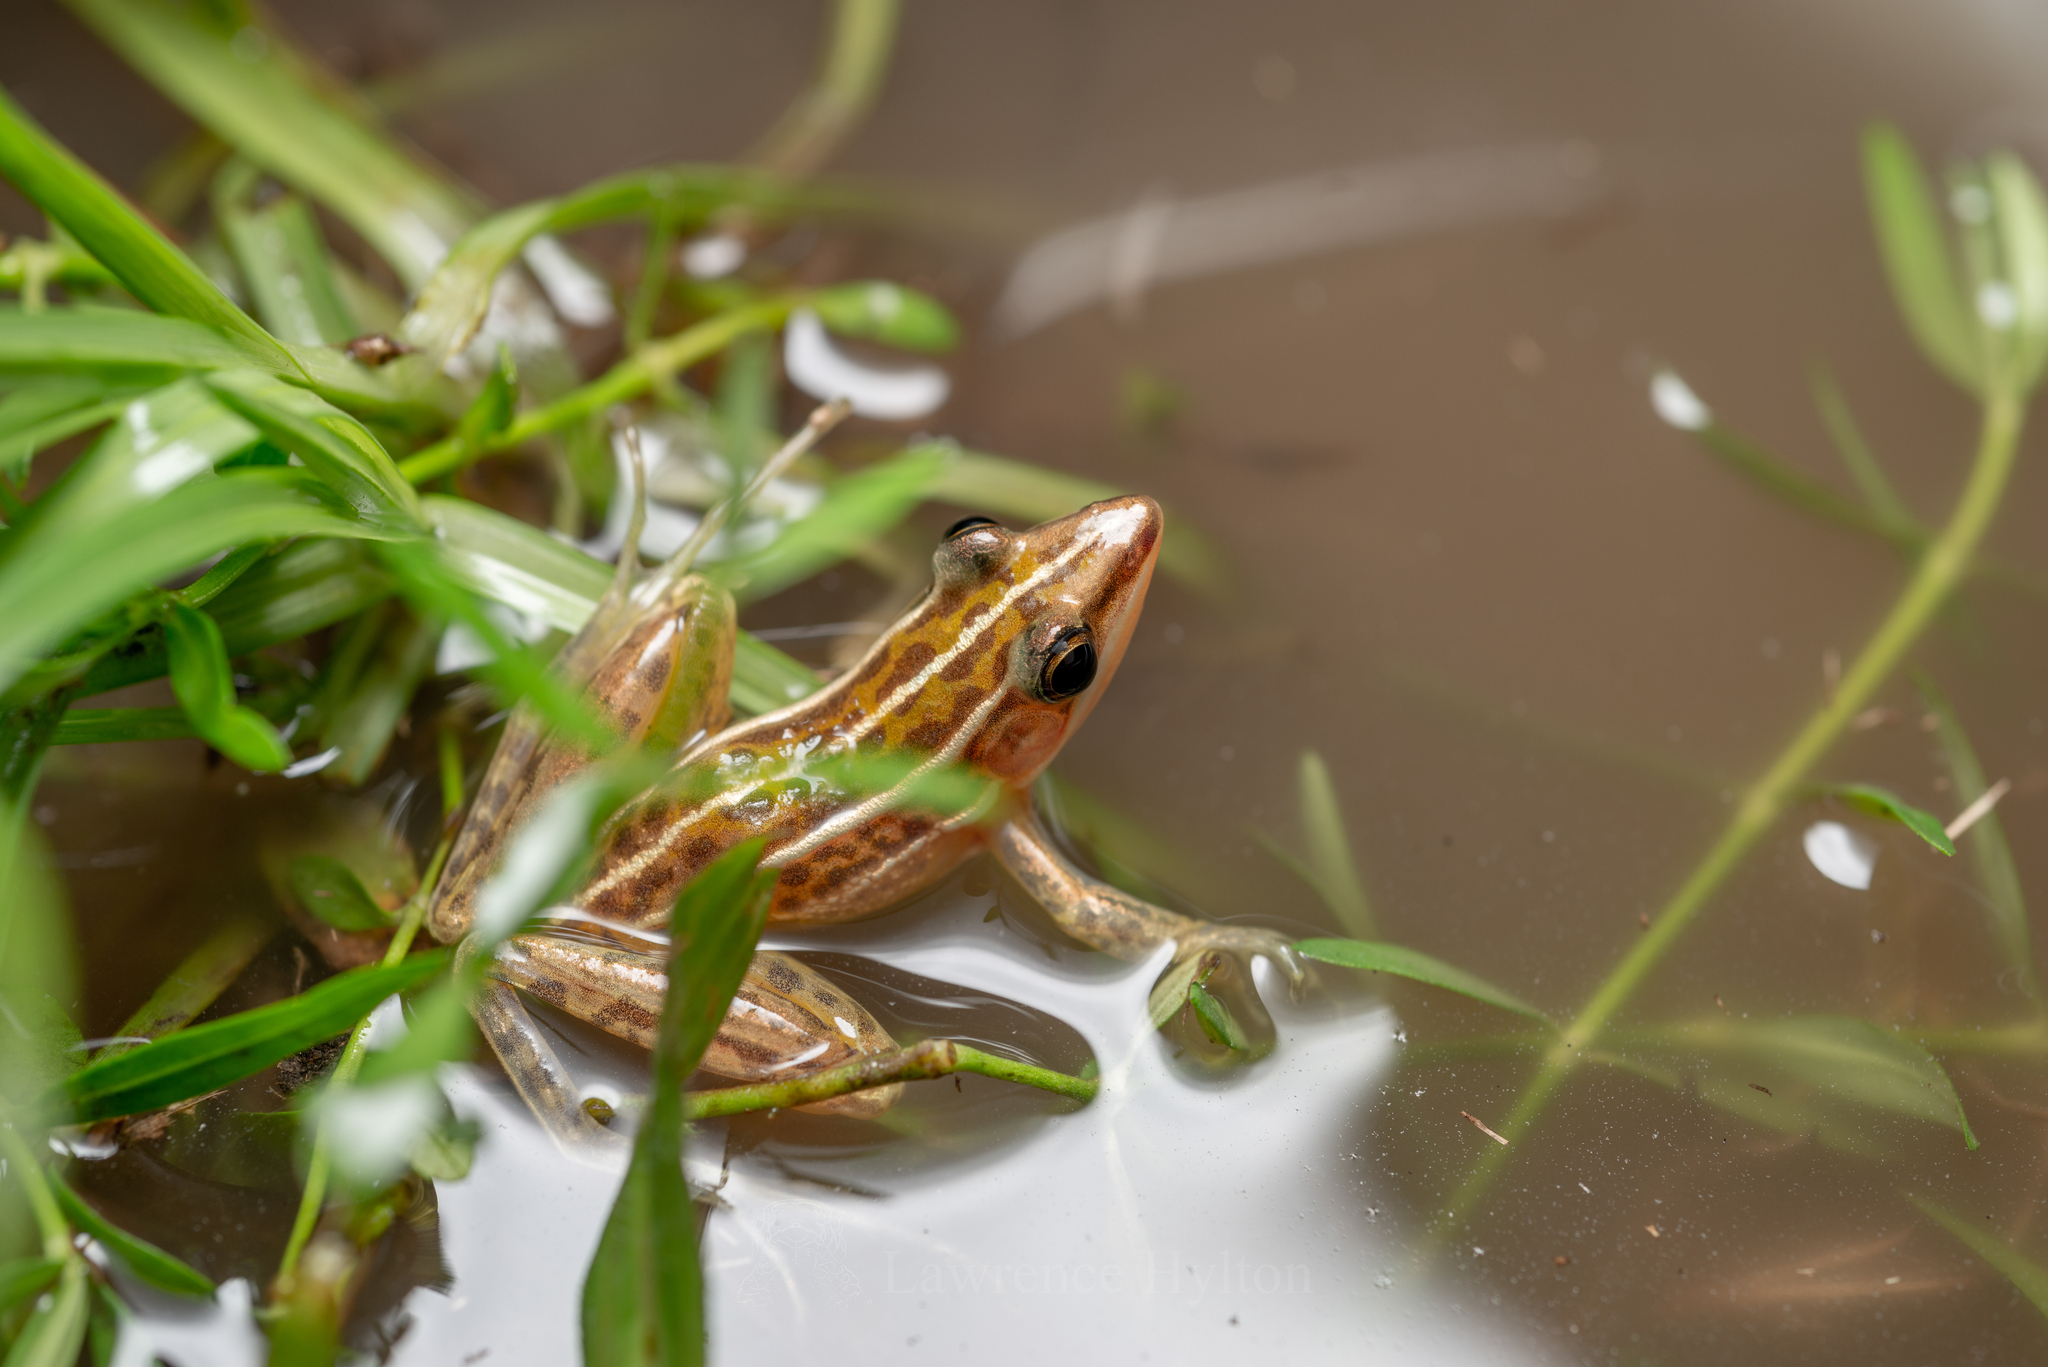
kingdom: Animalia
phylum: Chordata
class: Amphibia
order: Anura
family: Ranidae
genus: Hylarana
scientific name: Hylarana macrodactyla
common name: Brown grasspound frog
